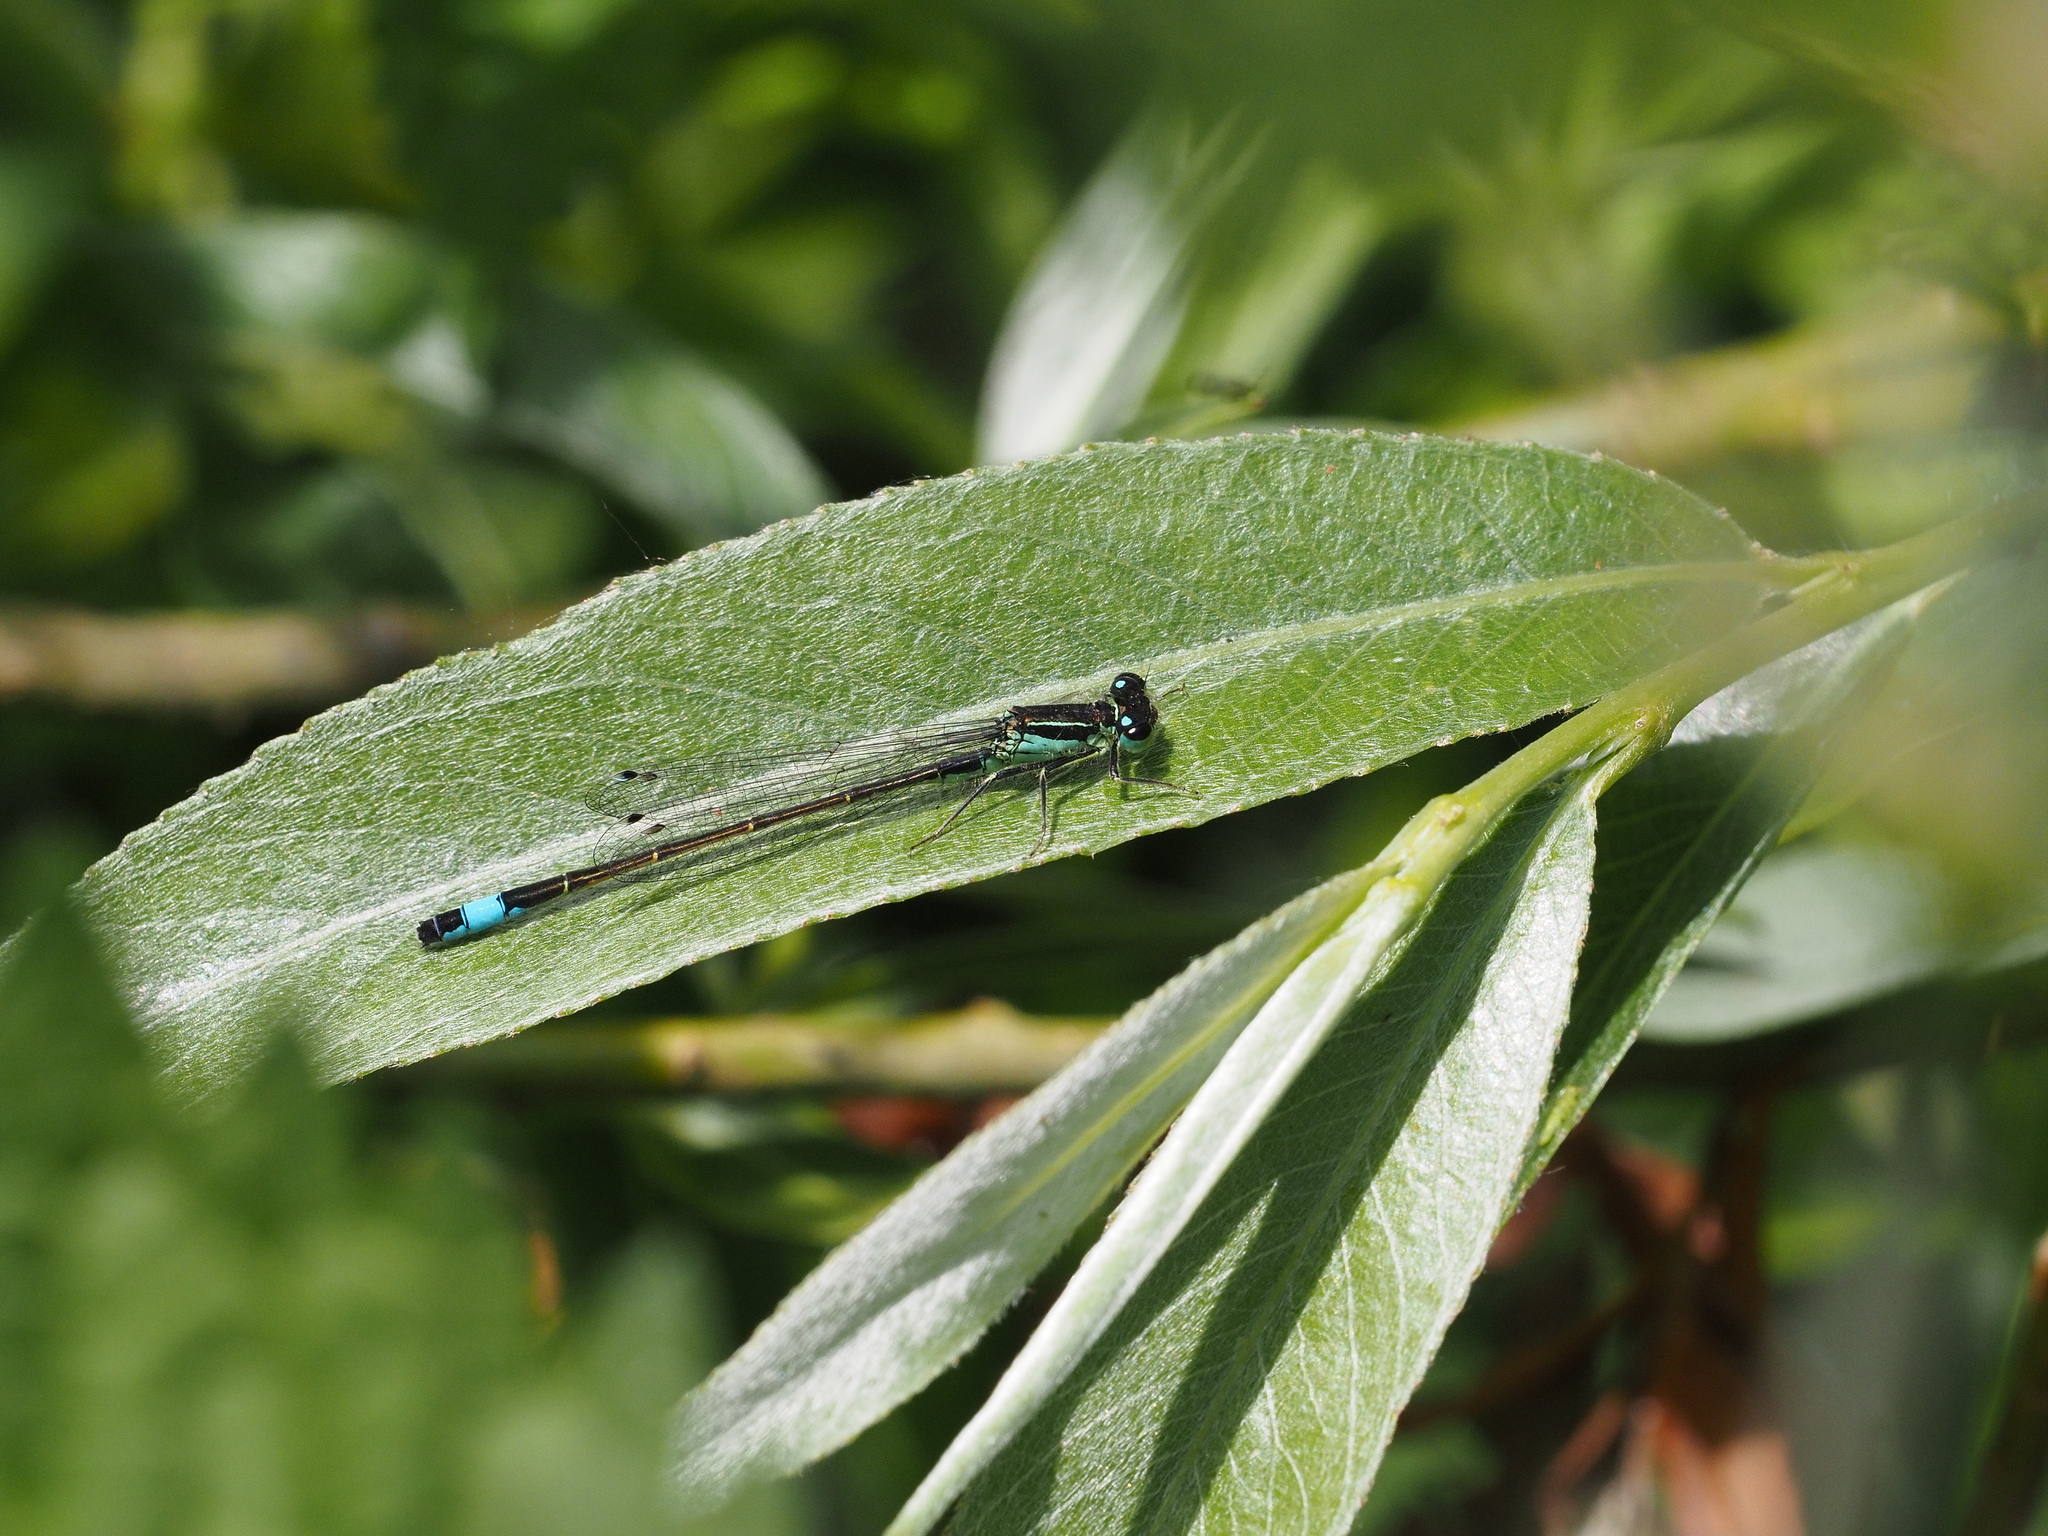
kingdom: Animalia
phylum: Arthropoda
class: Insecta
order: Odonata
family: Coenagrionidae
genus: Ischnura
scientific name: Ischnura elegans
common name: Blue-tailed damselfly
